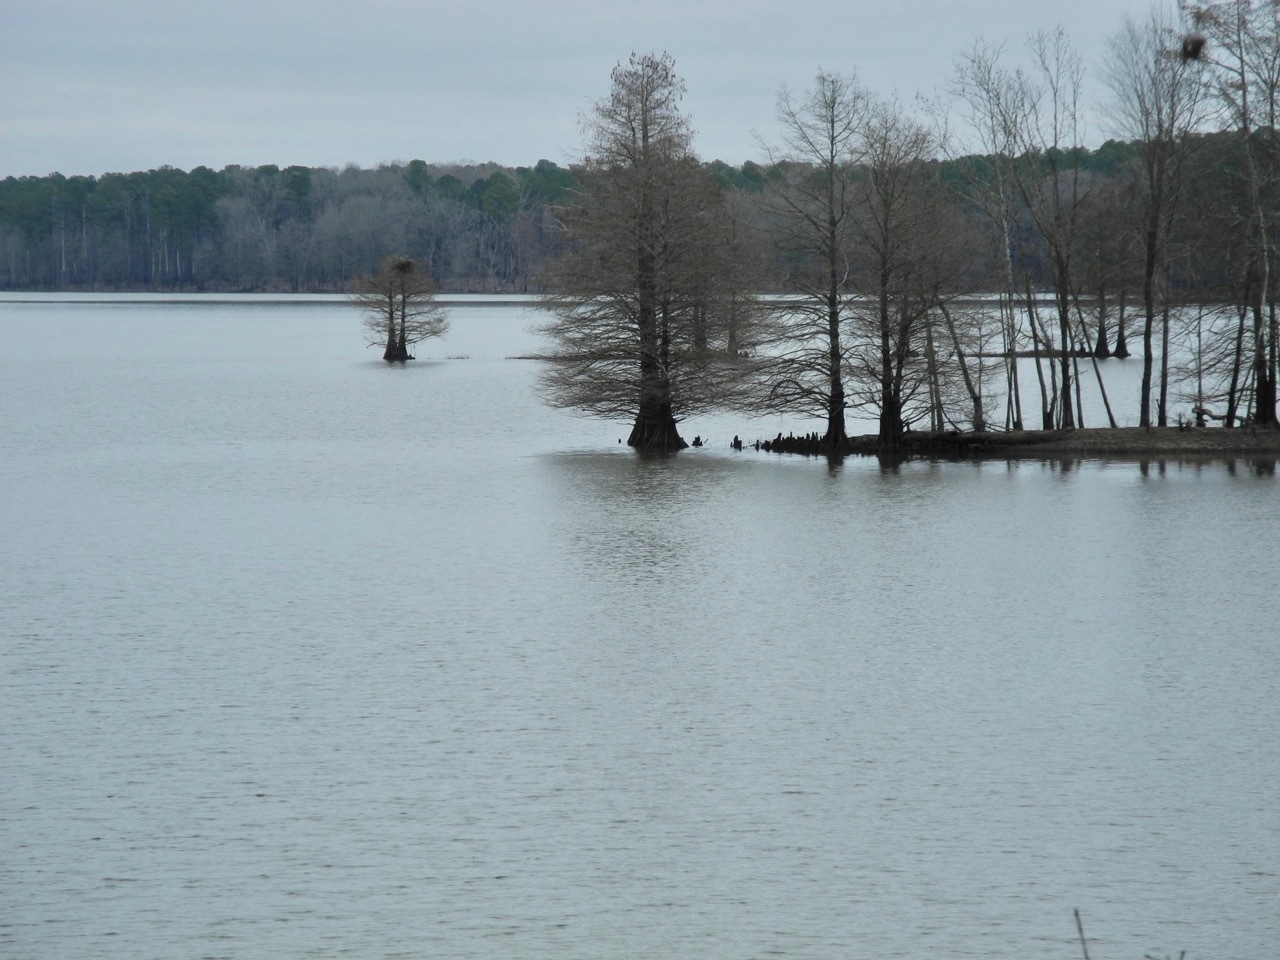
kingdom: Plantae
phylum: Tracheophyta
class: Pinopsida
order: Pinales
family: Cupressaceae
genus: Taxodium
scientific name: Taxodium distichum
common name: Bald cypress
